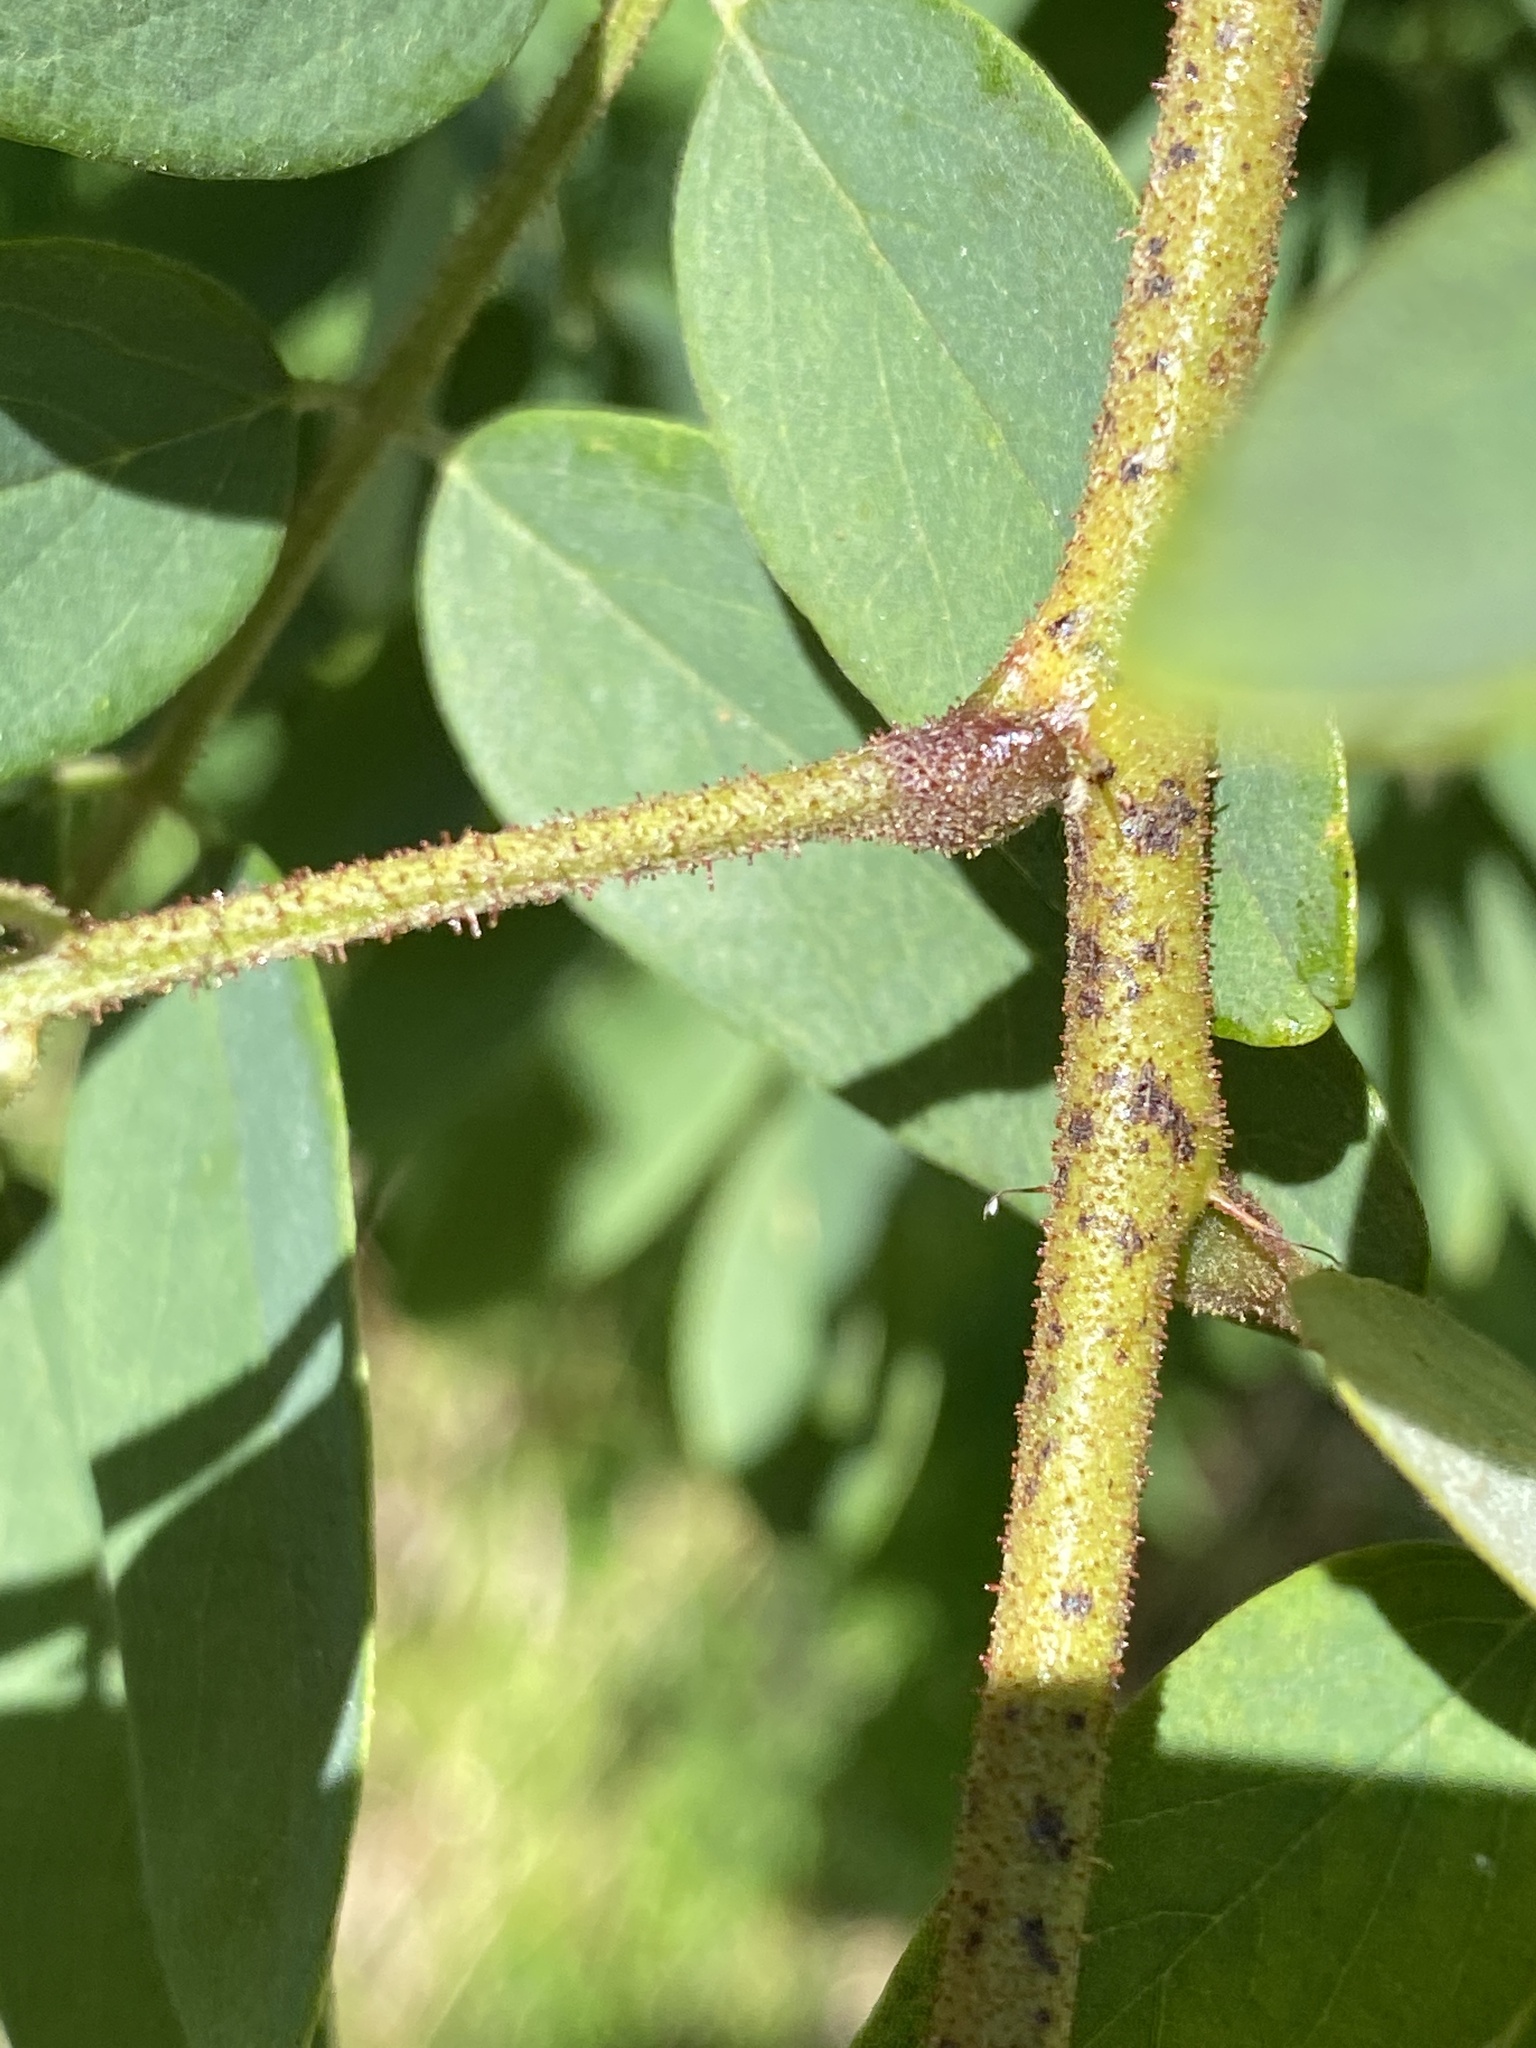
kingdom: Plantae
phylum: Tracheophyta
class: Magnoliopsida
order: Fabales
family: Fabaceae
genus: Robinia
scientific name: Robinia viscosa
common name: Clammy locust
